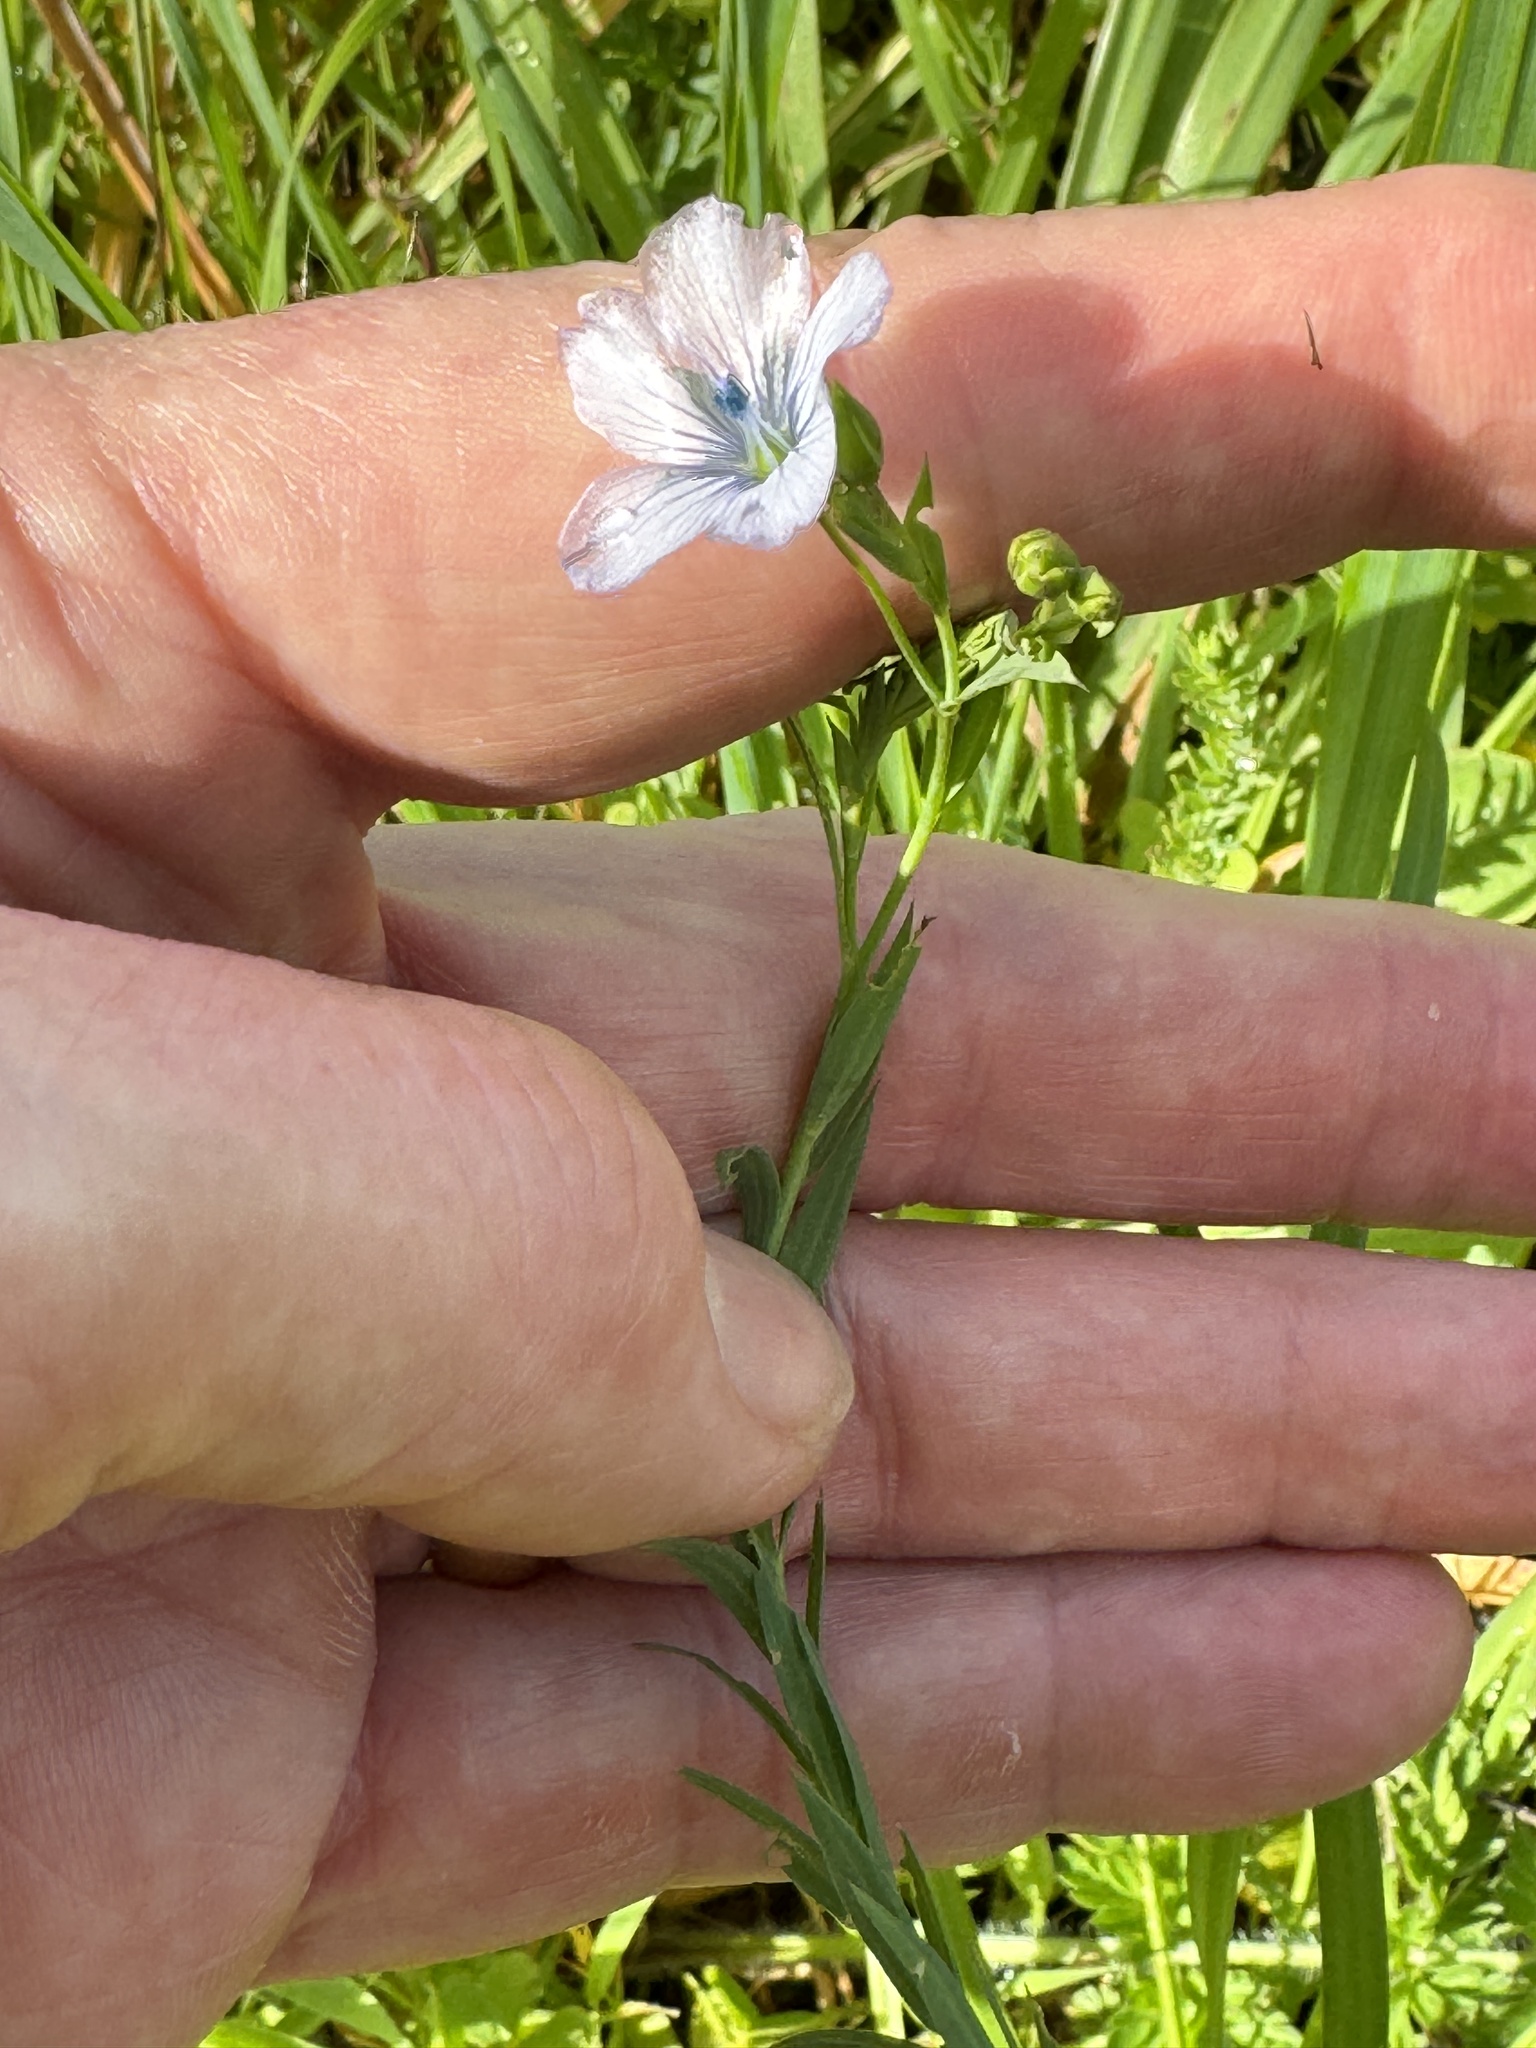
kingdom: Plantae
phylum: Tracheophyta
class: Magnoliopsida
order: Malpighiales
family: Linaceae
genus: Linum
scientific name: Linum bienne
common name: Pale flax
